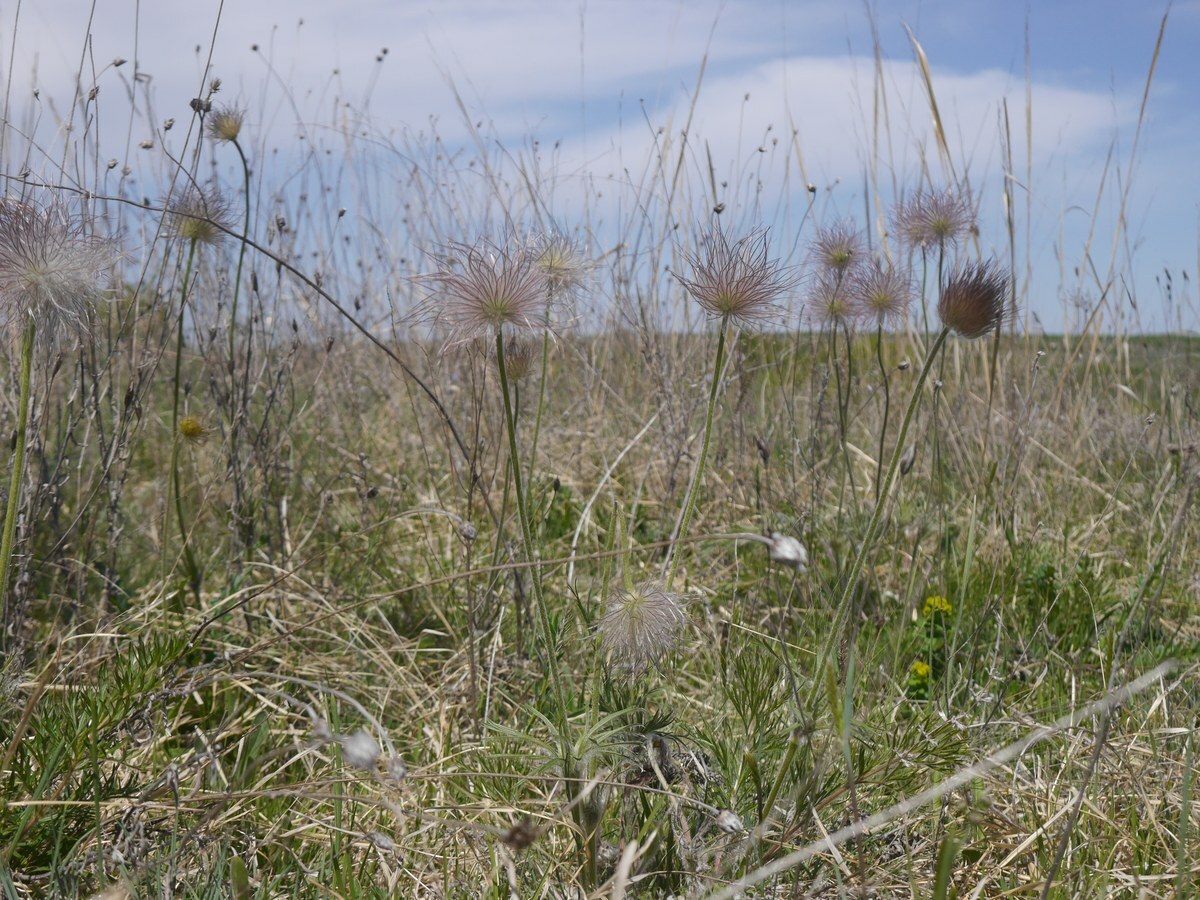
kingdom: Plantae
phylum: Tracheophyta
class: Magnoliopsida
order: Ranunculales
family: Ranunculaceae
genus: Pulsatilla
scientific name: Pulsatilla pratensis
